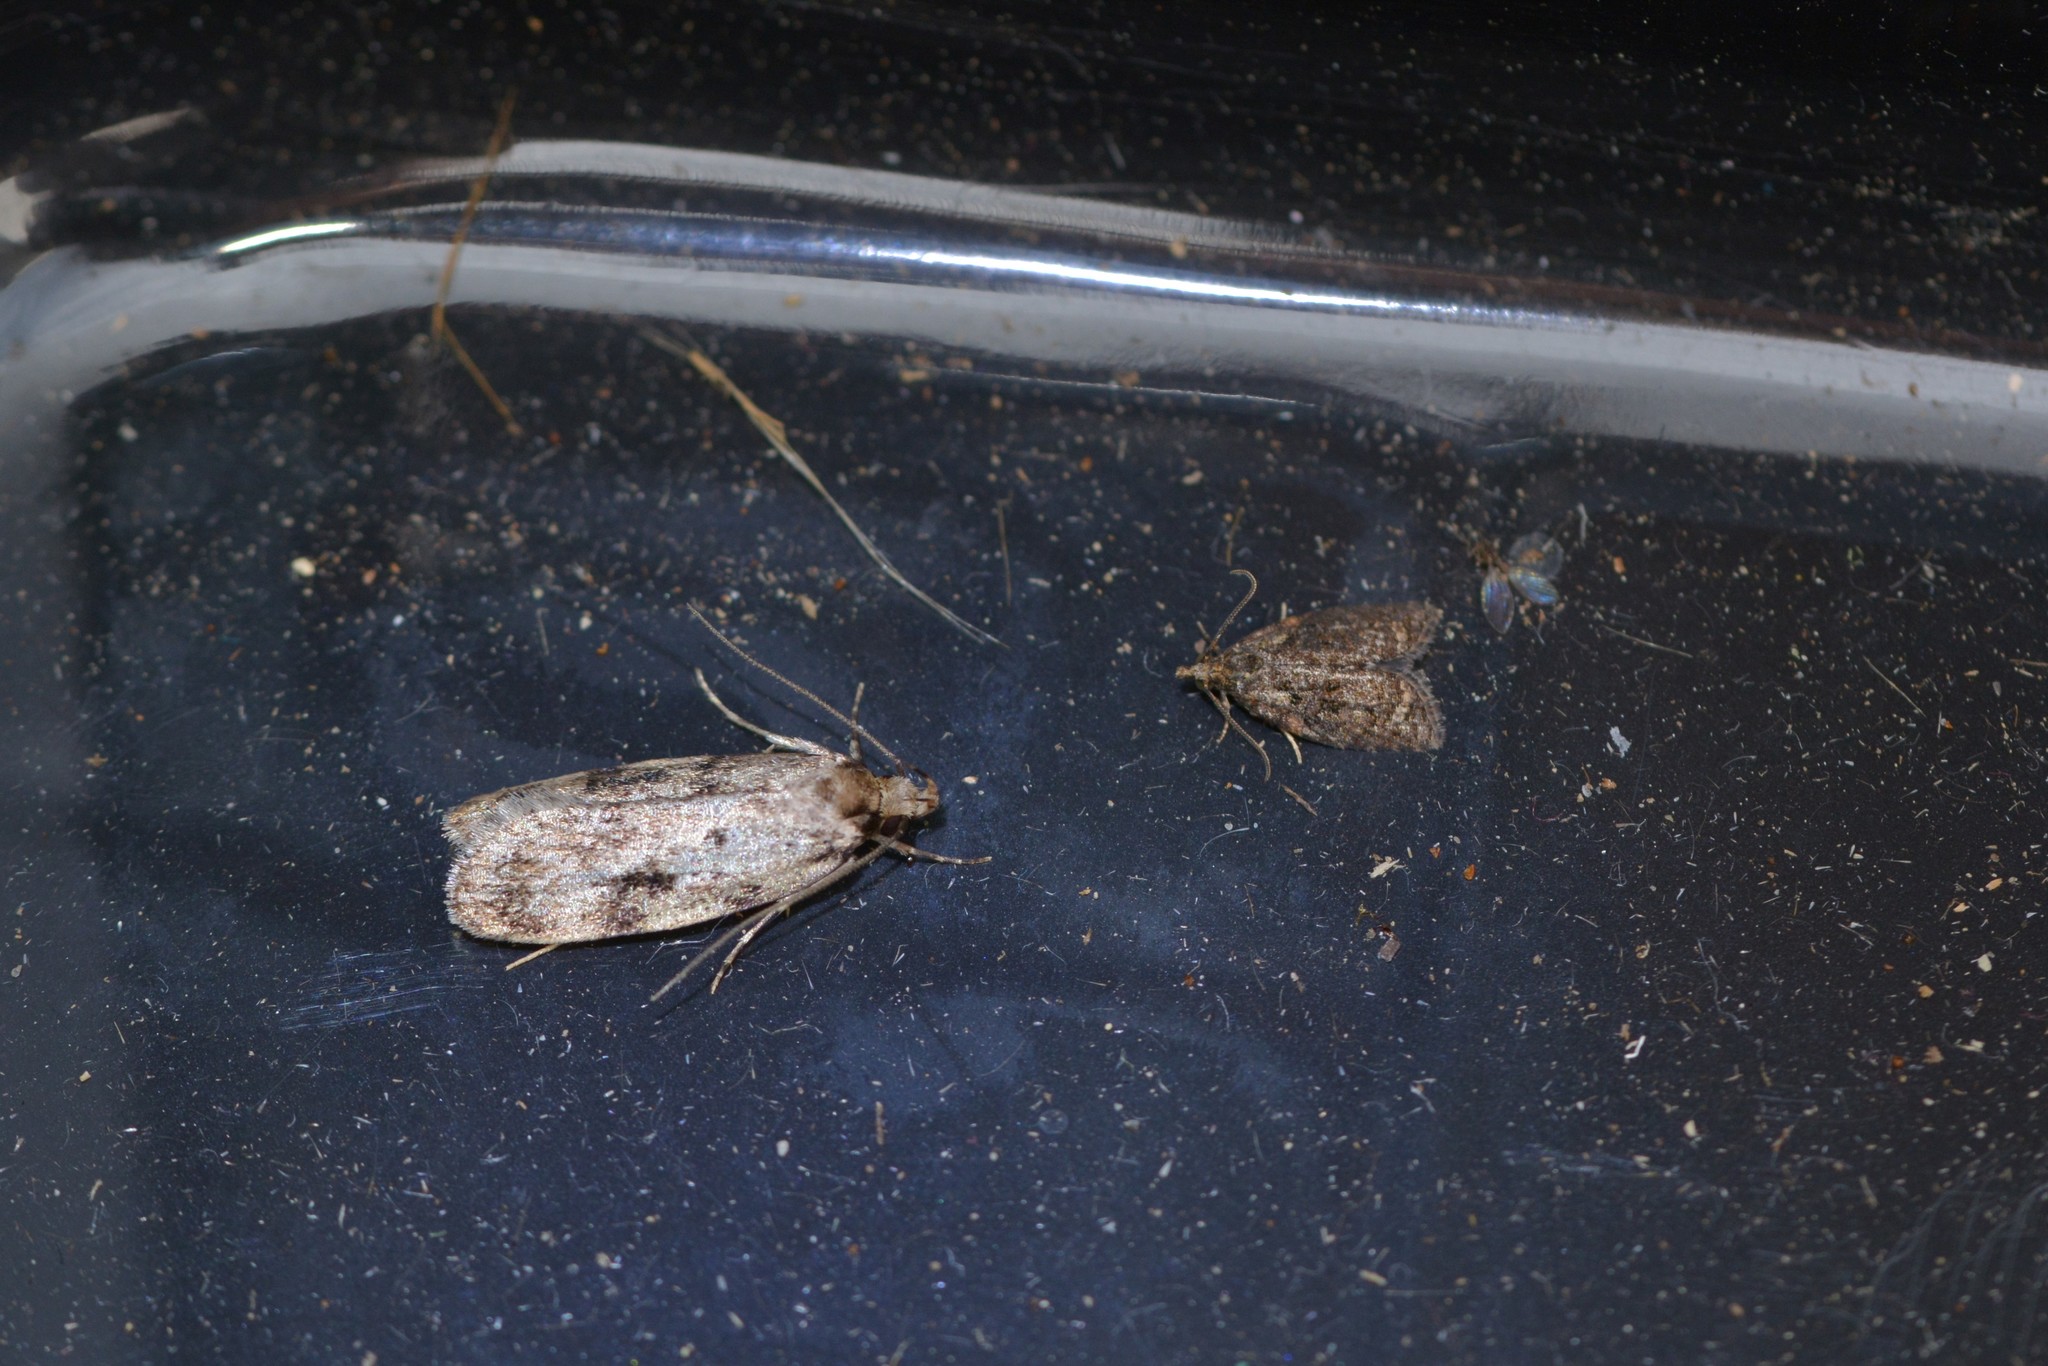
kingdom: Animalia
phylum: Arthropoda
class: Insecta
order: Lepidoptera
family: Oecophoridae
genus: Barea
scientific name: Barea exarcha
